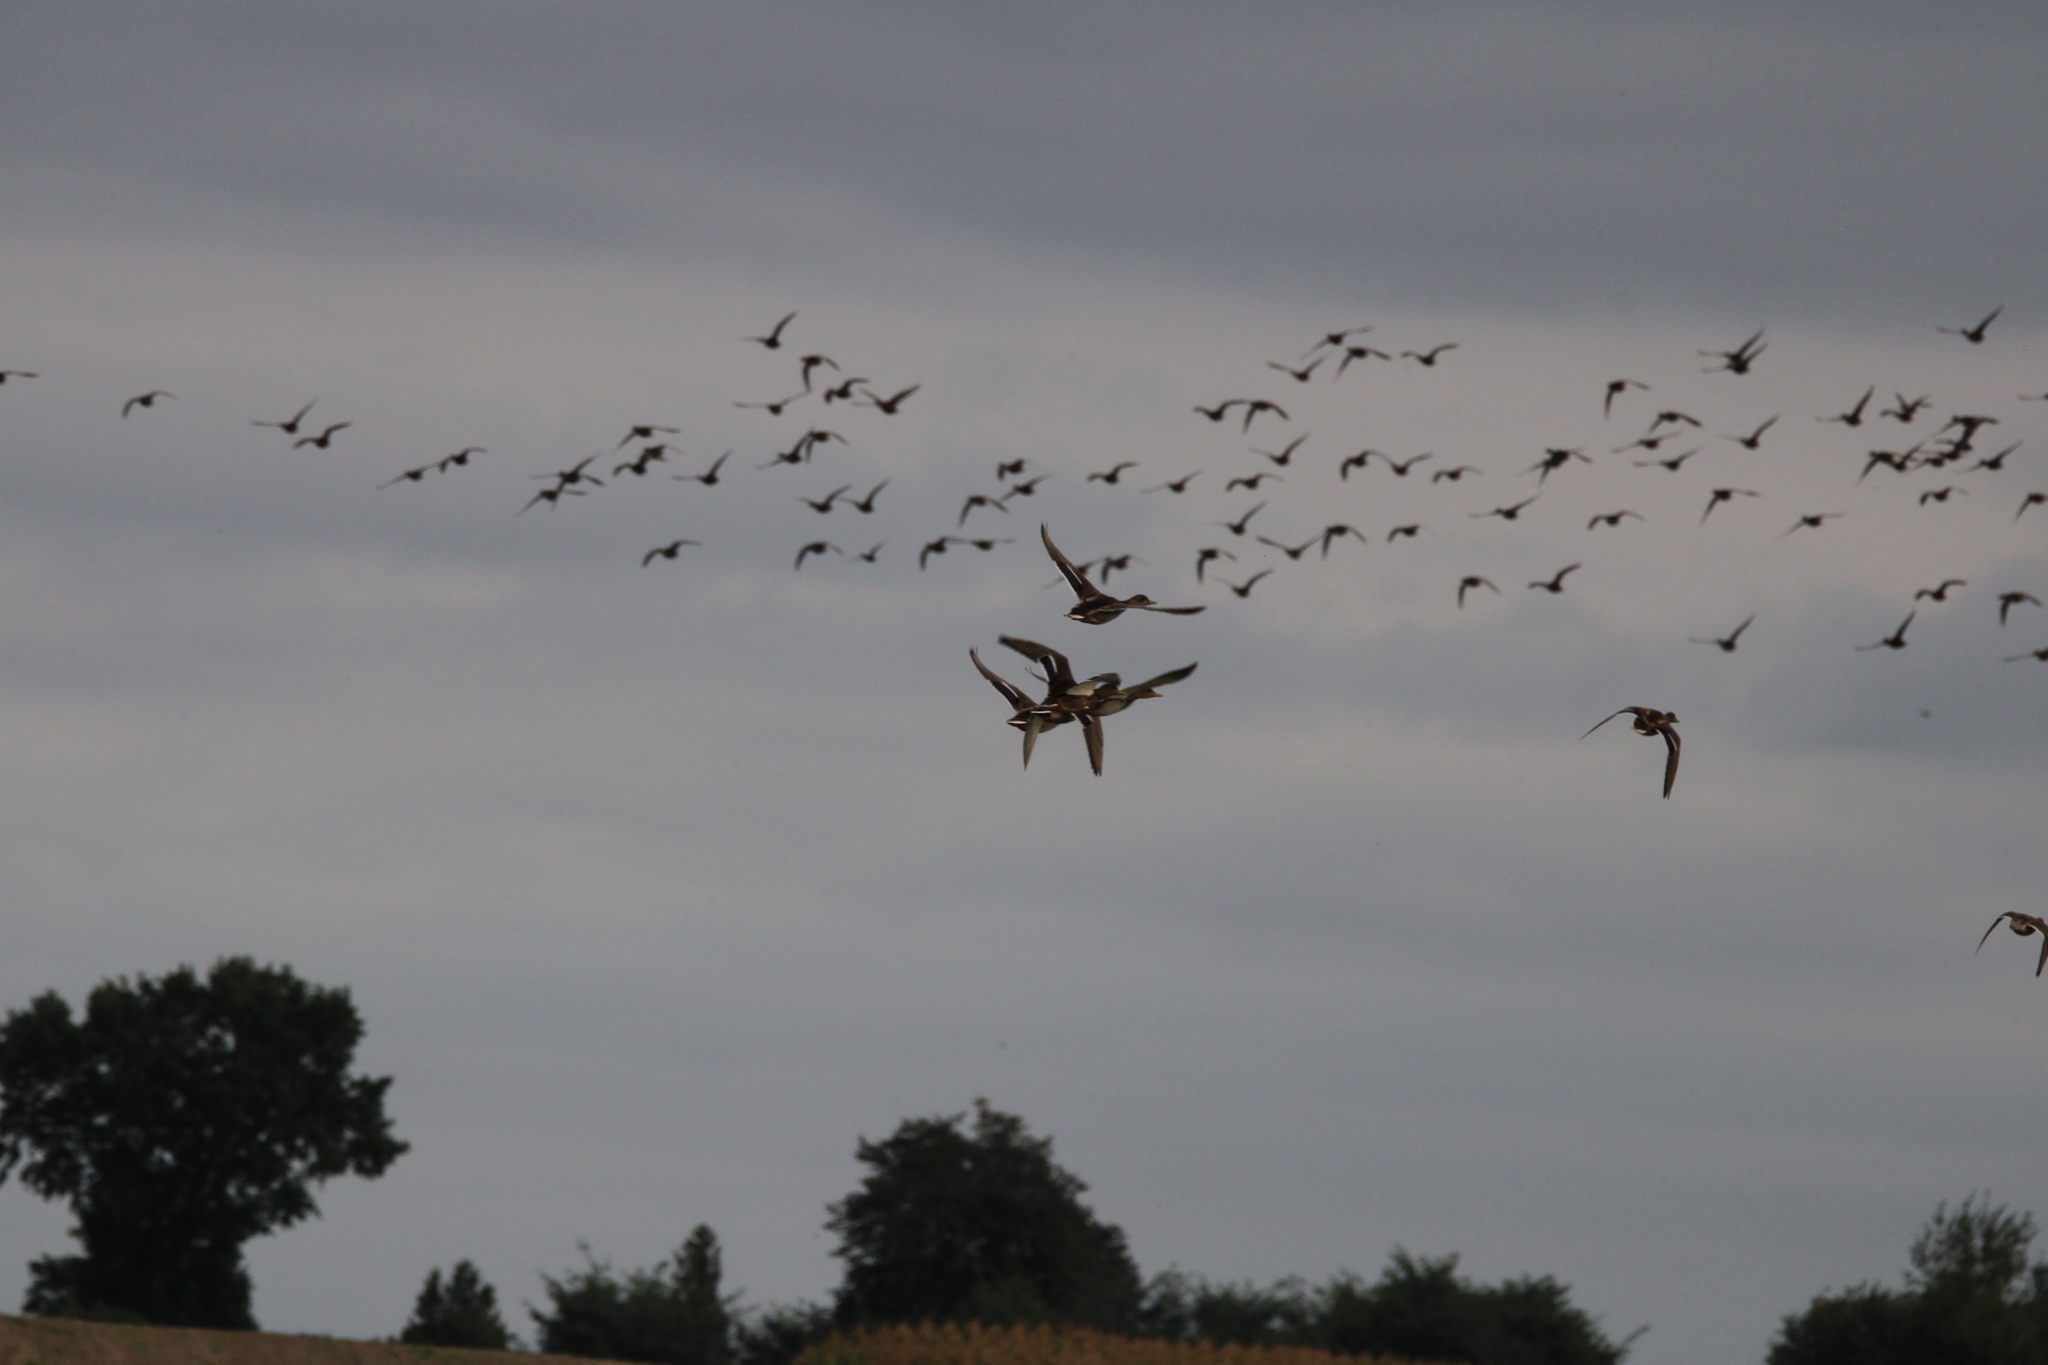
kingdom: Animalia
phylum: Chordata
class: Aves
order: Anseriformes
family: Anatidae
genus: Anas
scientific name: Anas platyrhynchos
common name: Mallard
